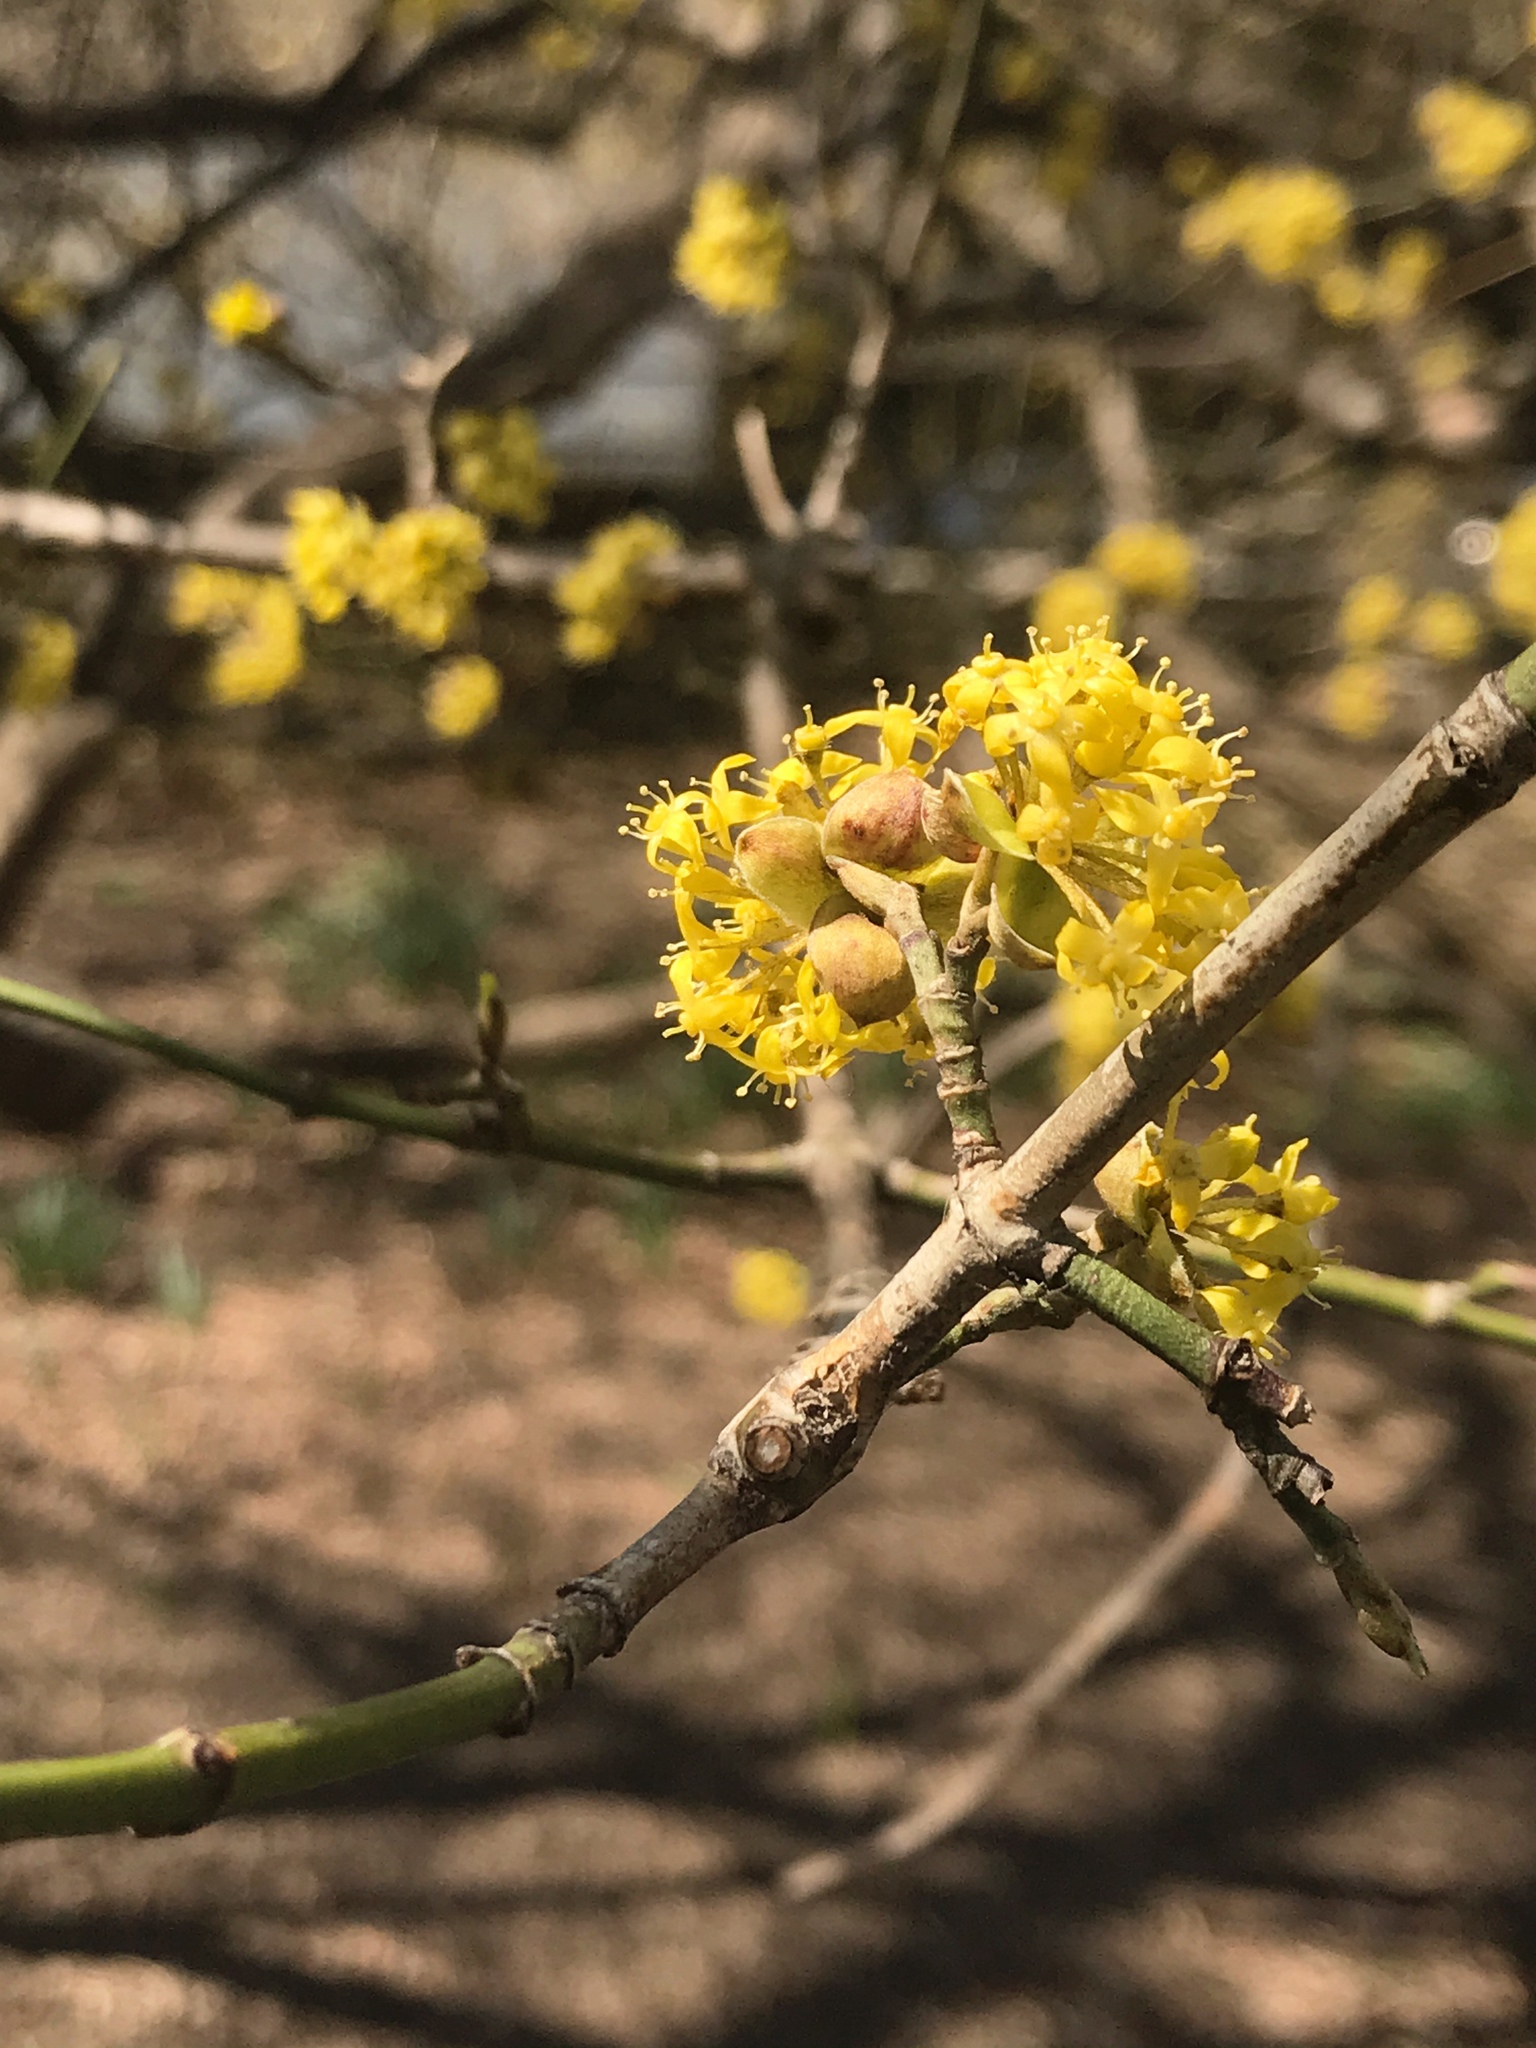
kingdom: Plantae
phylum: Tracheophyta
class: Magnoliopsida
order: Cornales
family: Cornaceae
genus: Cornus
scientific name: Cornus mas
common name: Cornelian-cherry
